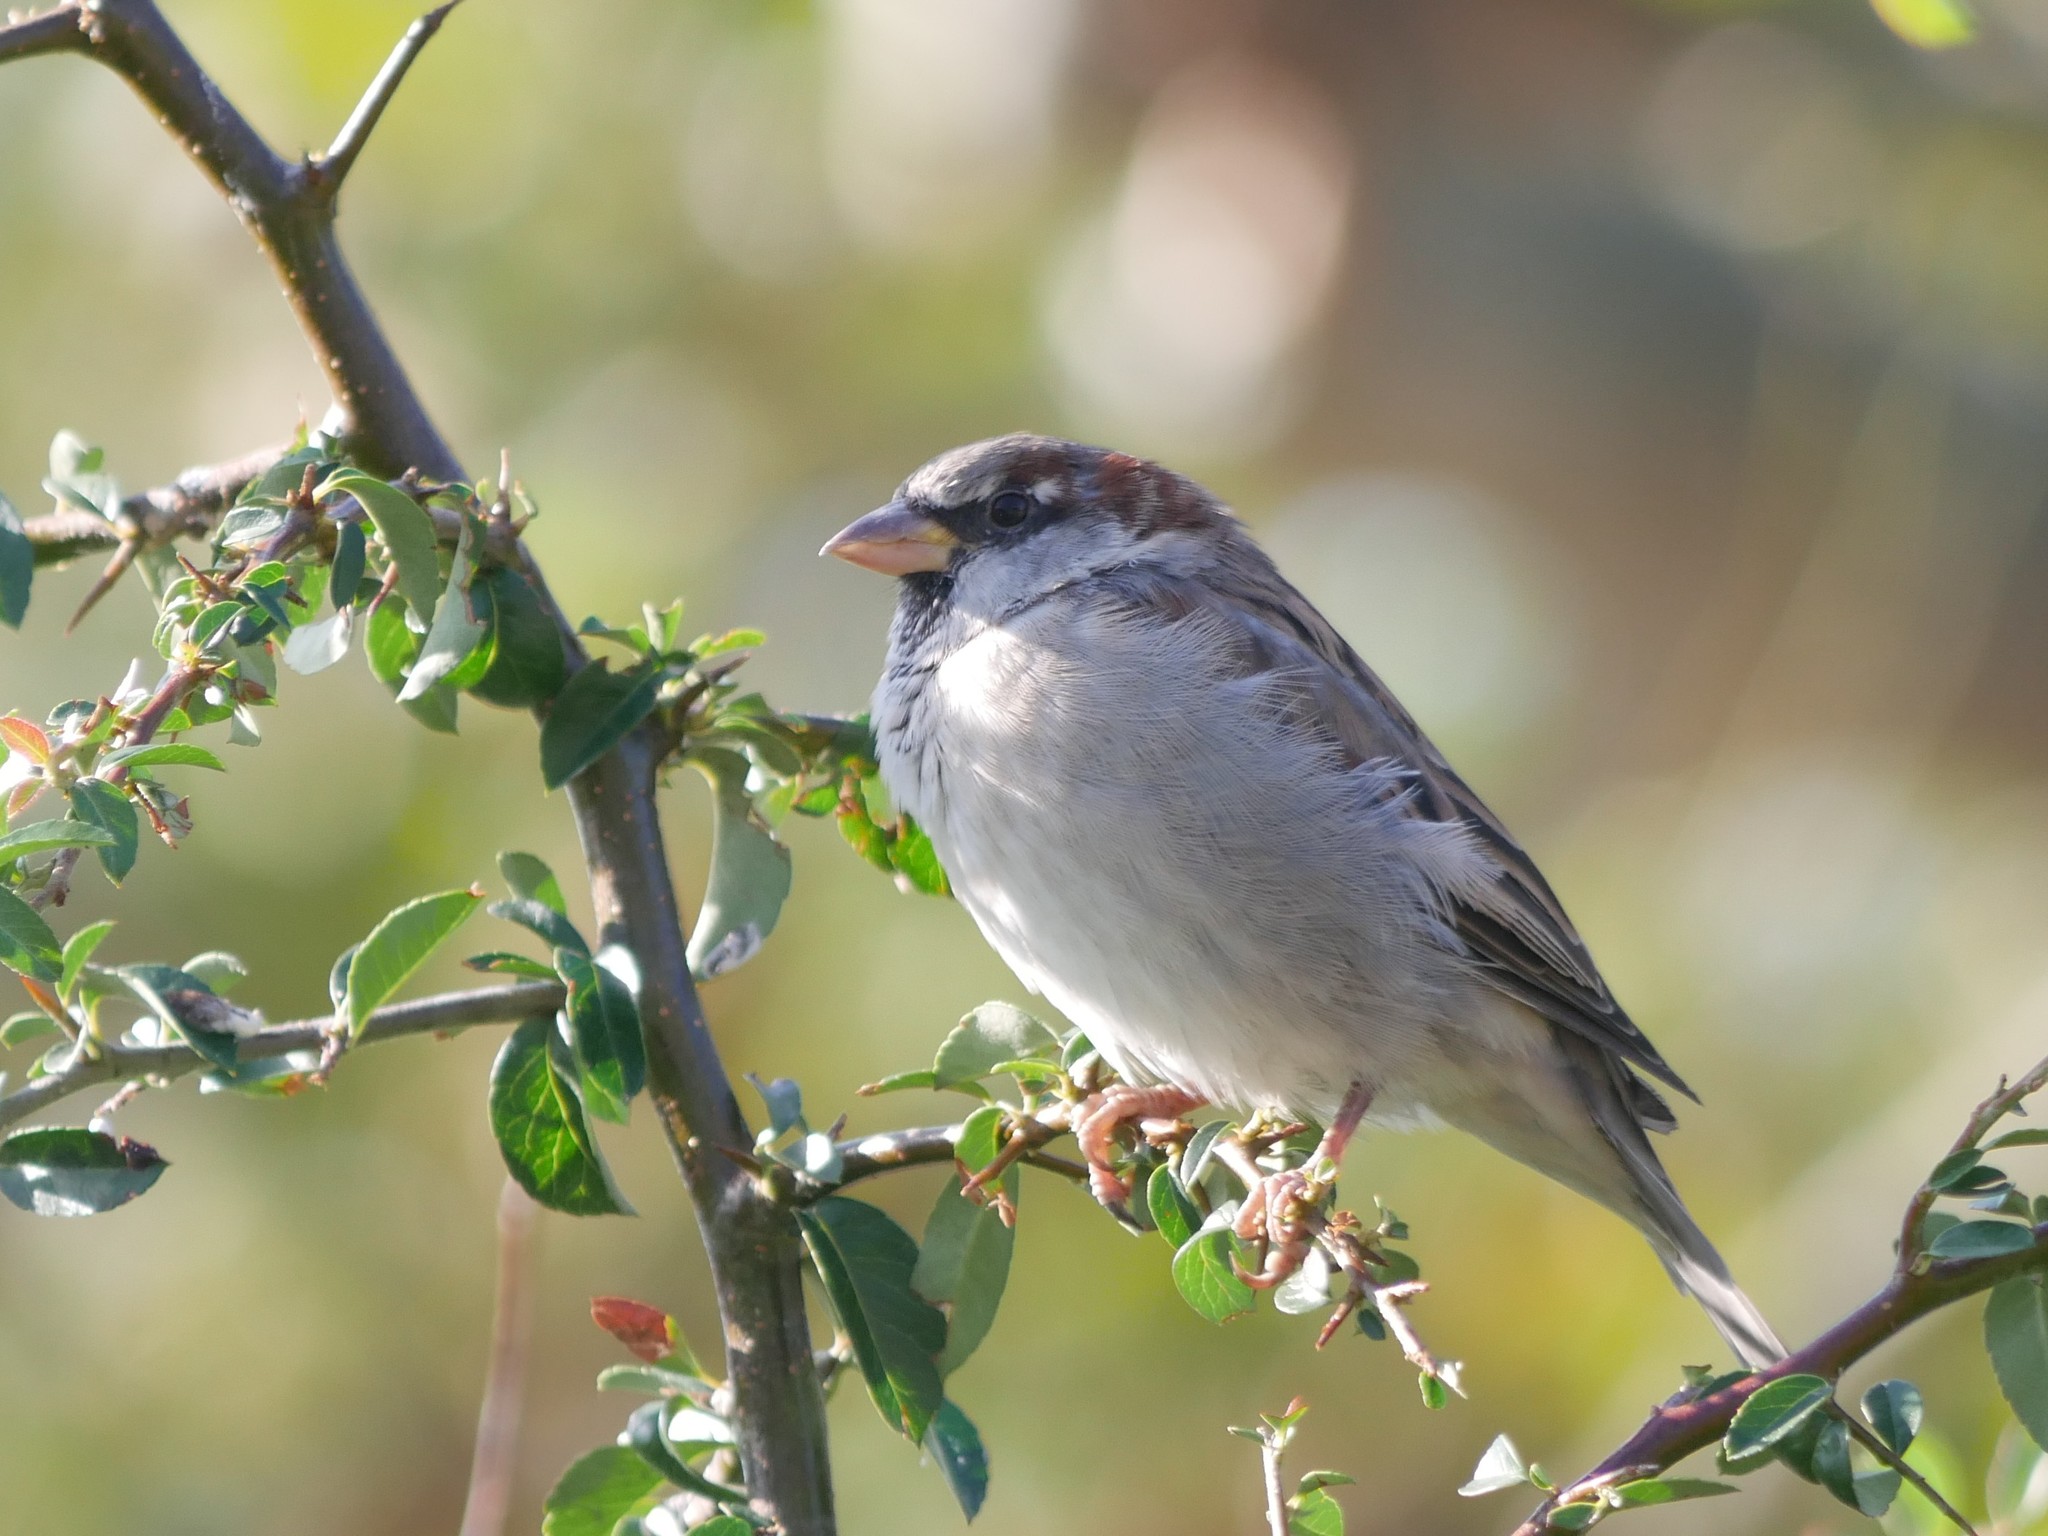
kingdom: Animalia
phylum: Chordata
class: Aves
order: Passeriformes
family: Passeridae
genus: Passer
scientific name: Passer domesticus
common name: House sparrow
